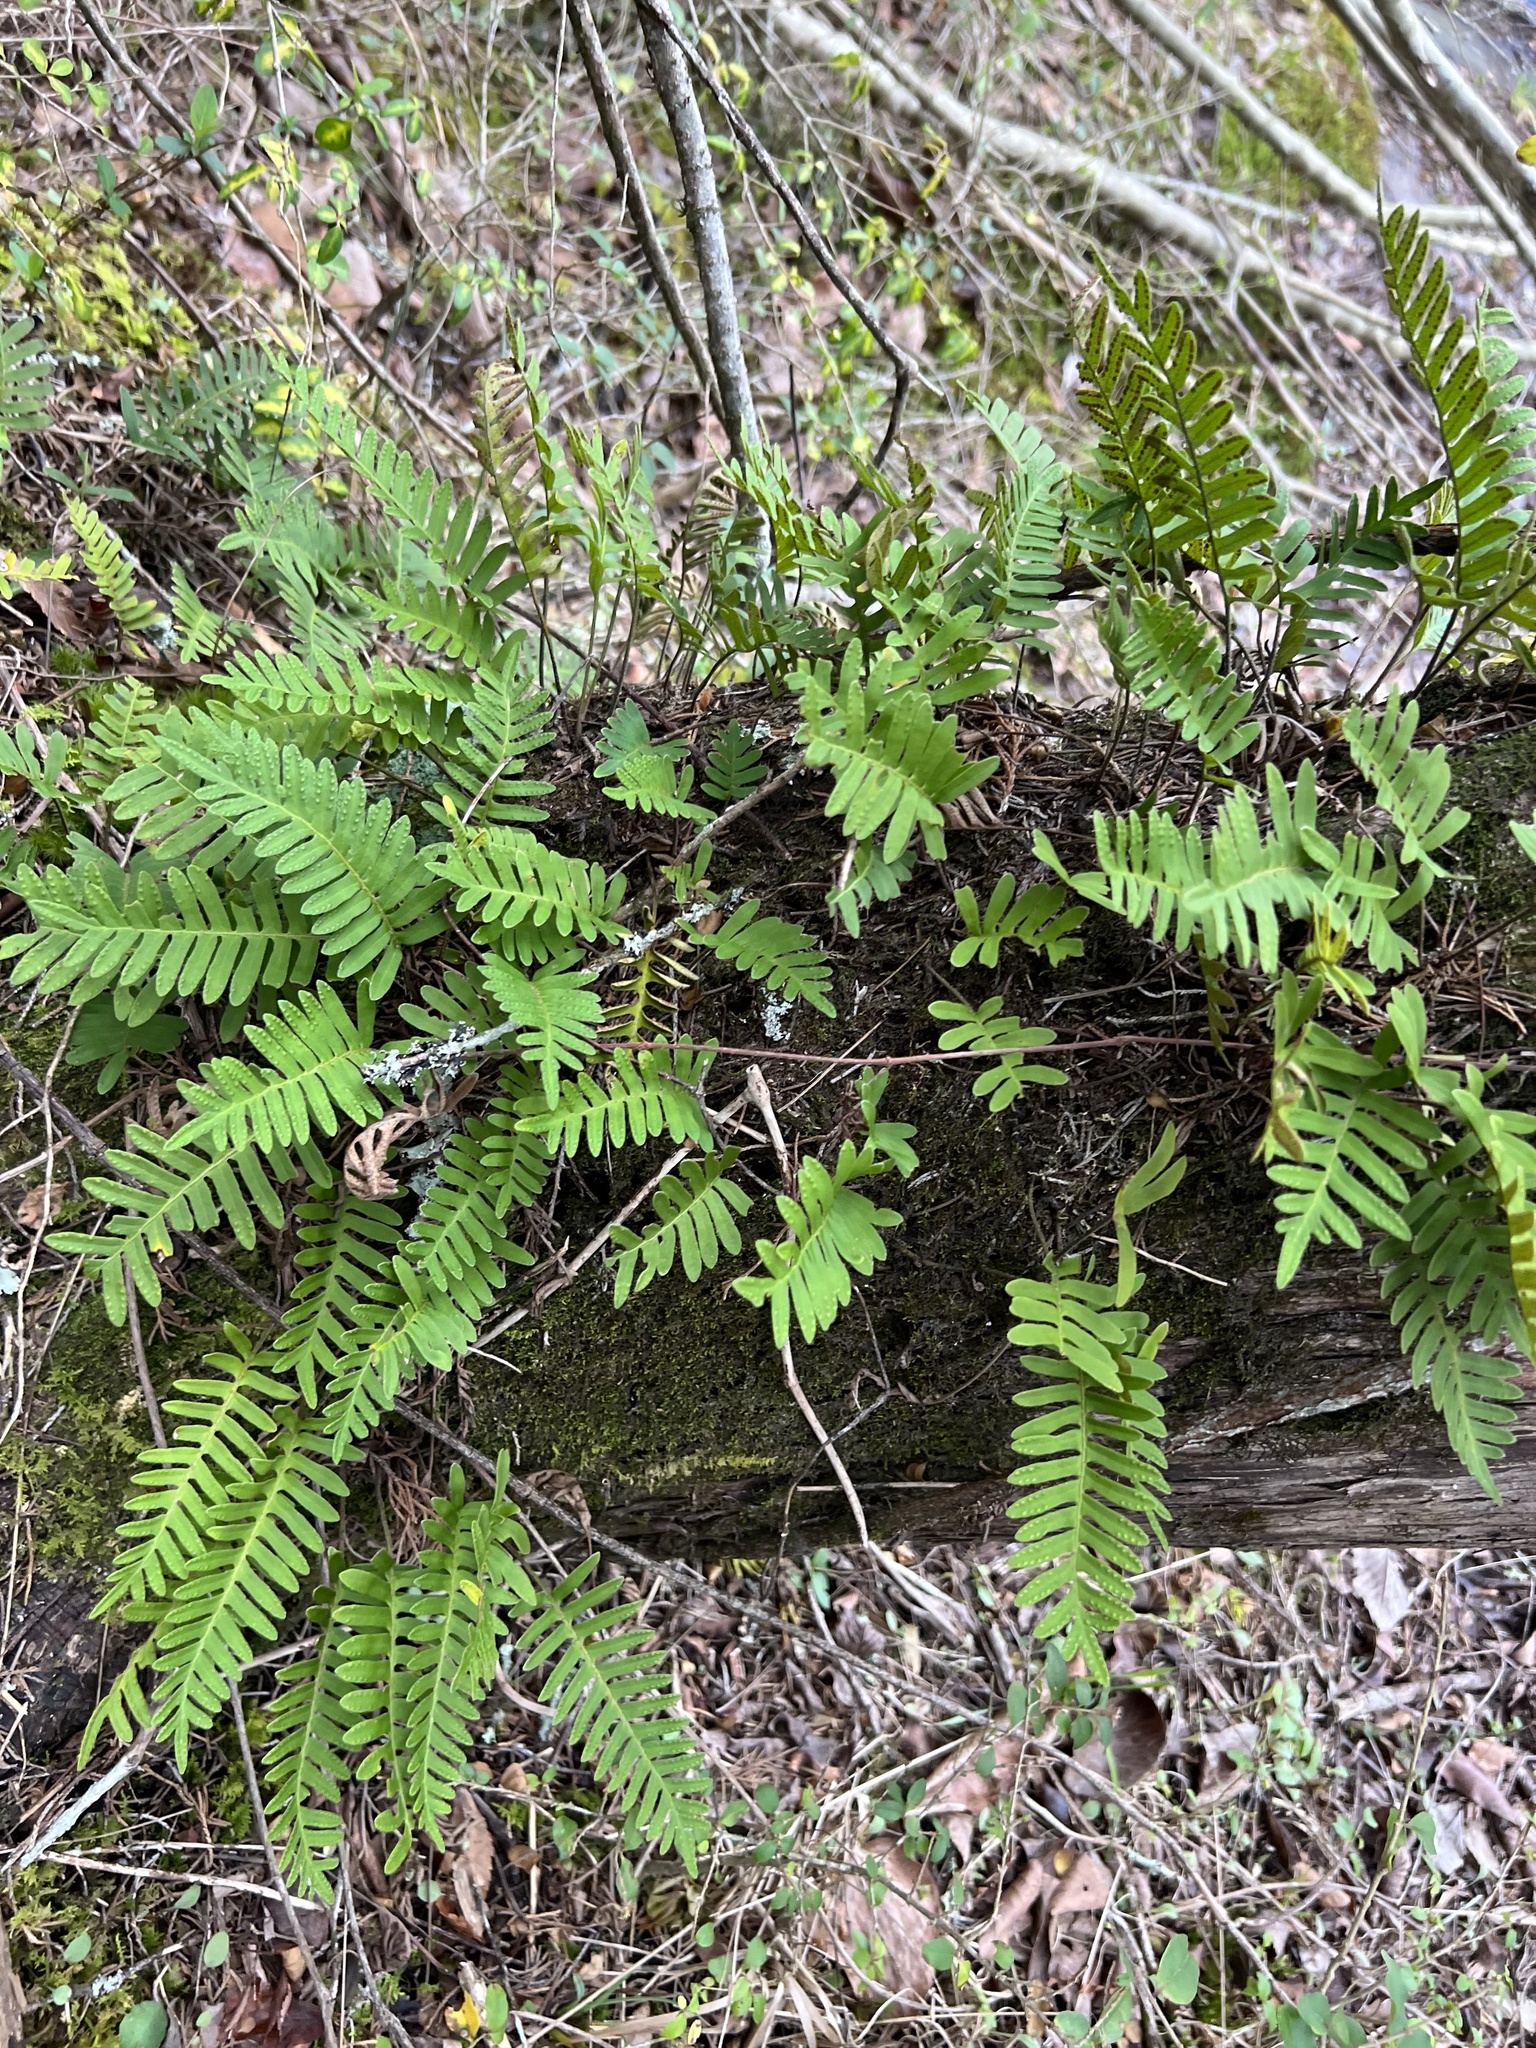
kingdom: Plantae
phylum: Tracheophyta
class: Polypodiopsida
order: Polypodiales
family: Polypodiaceae
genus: Pleopeltis
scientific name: Pleopeltis michauxiana
